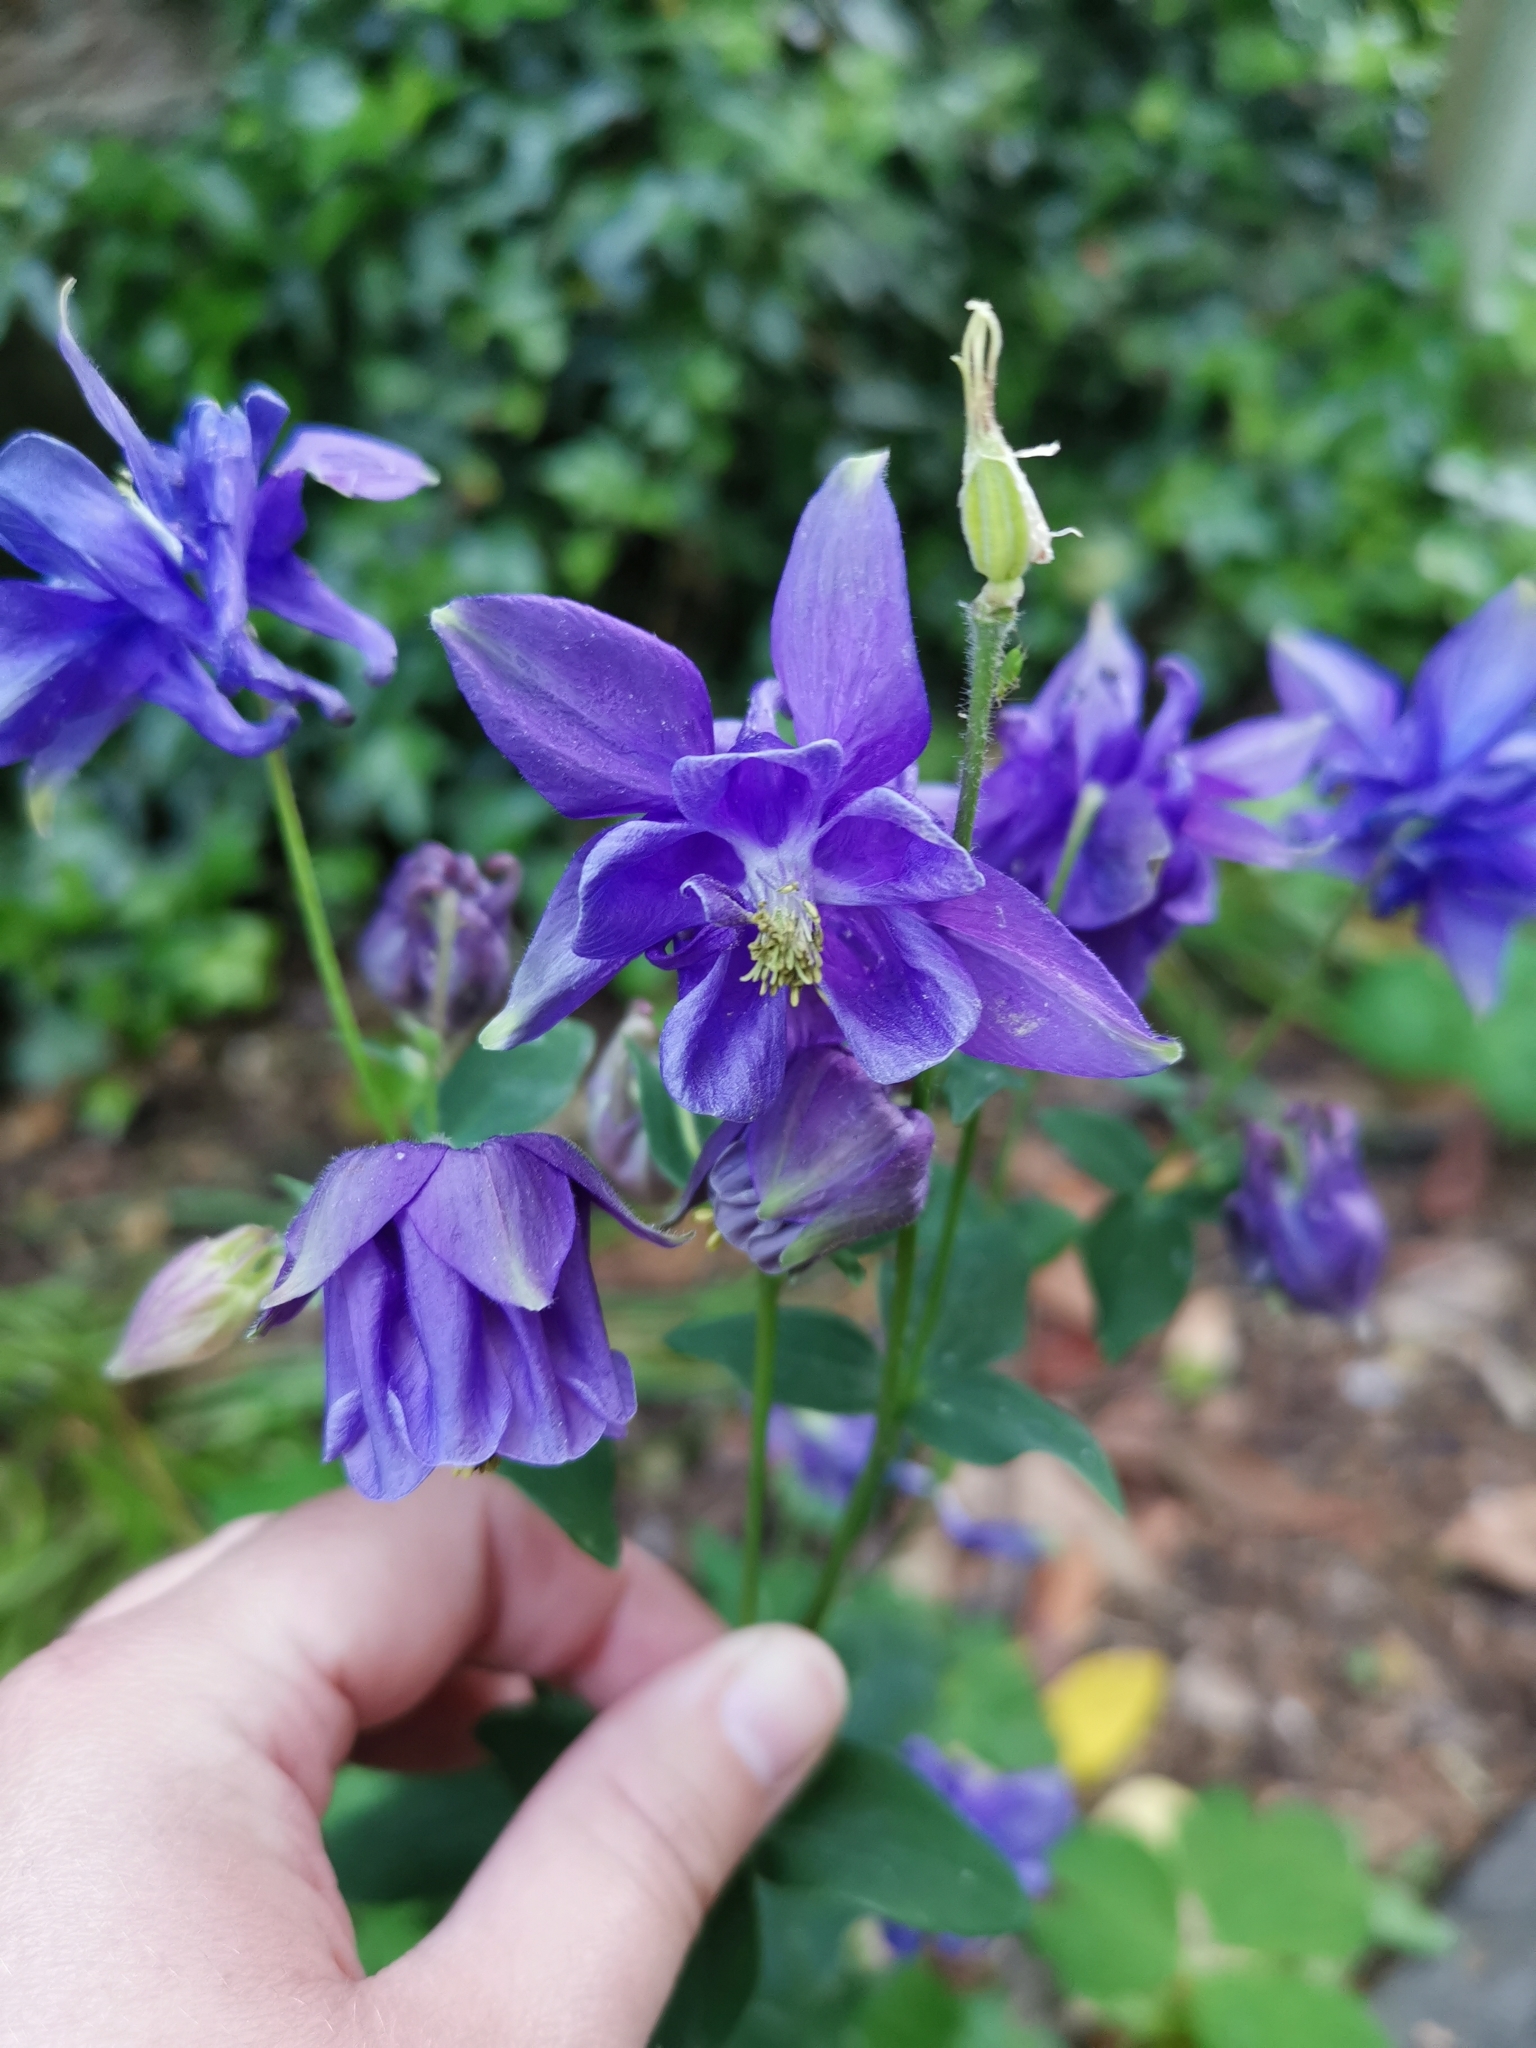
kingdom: Plantae
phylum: Tracheophyta
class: Magnoliopsida
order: Ranunculales
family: Ranunculaceae
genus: Aquilegia
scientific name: Aquilegia vulgaris
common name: Columbine
